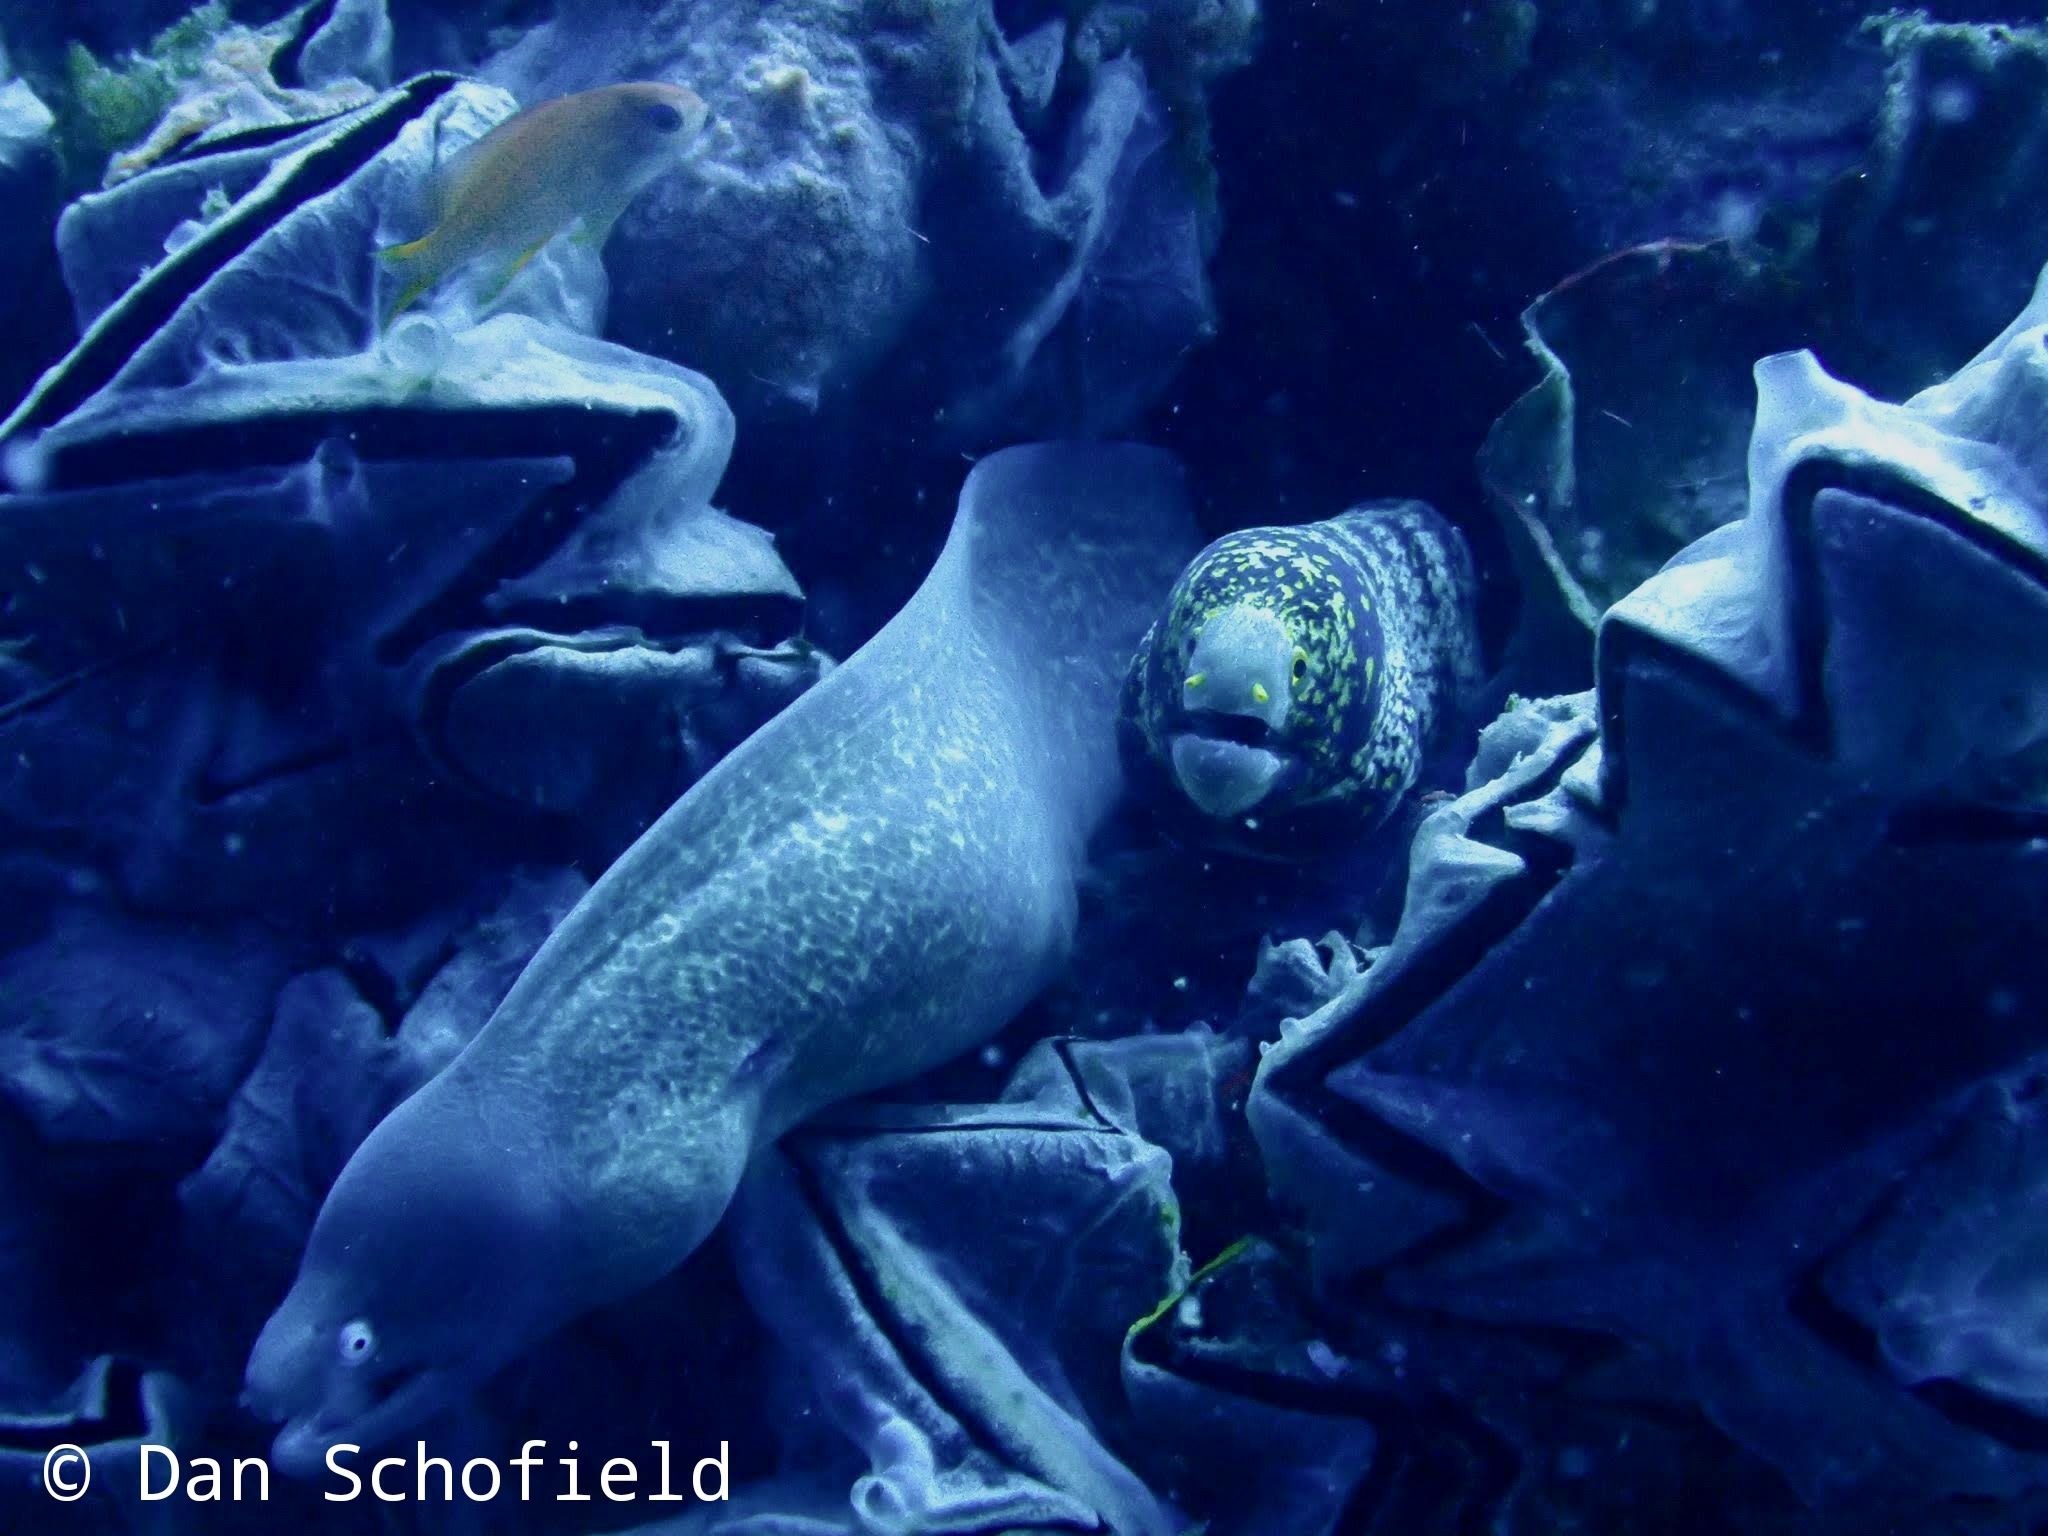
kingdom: Animalia
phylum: Chordata
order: Anguilliformes
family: Muraenidae
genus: Gymnothorax
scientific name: Gymnothorax thyrsoideus
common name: Greyface moray
